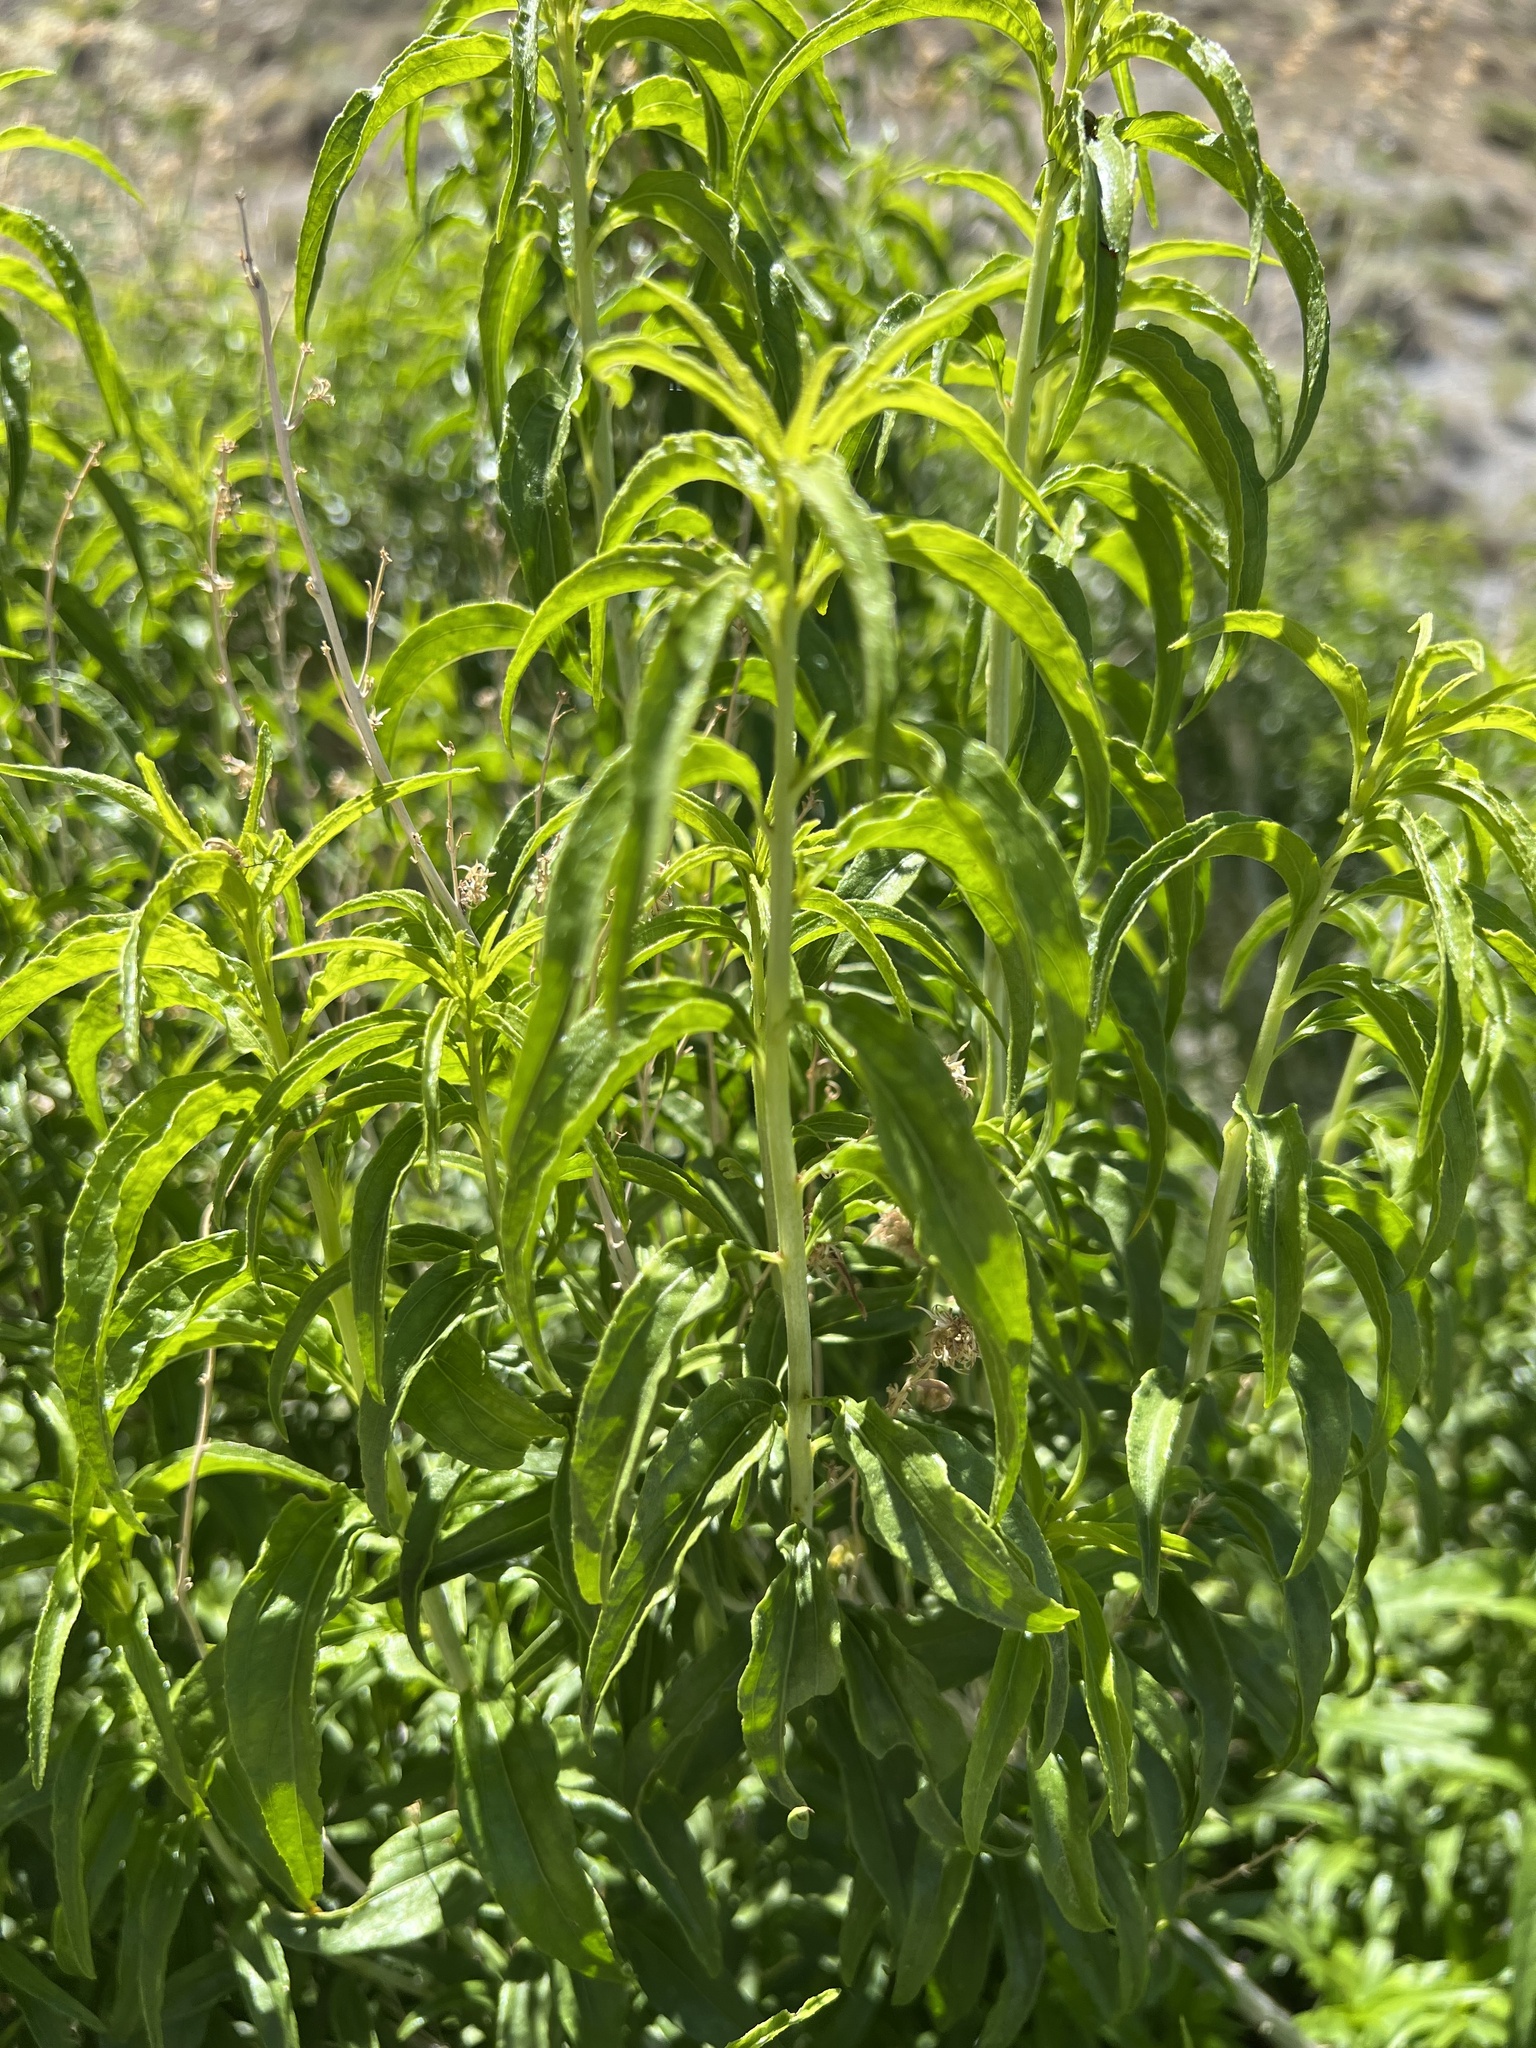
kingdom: Plantae
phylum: Tracheophyta
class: Magnoliopsida
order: Asterales
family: Asteraceae
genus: Brickellia
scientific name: Brickellia longifolia
